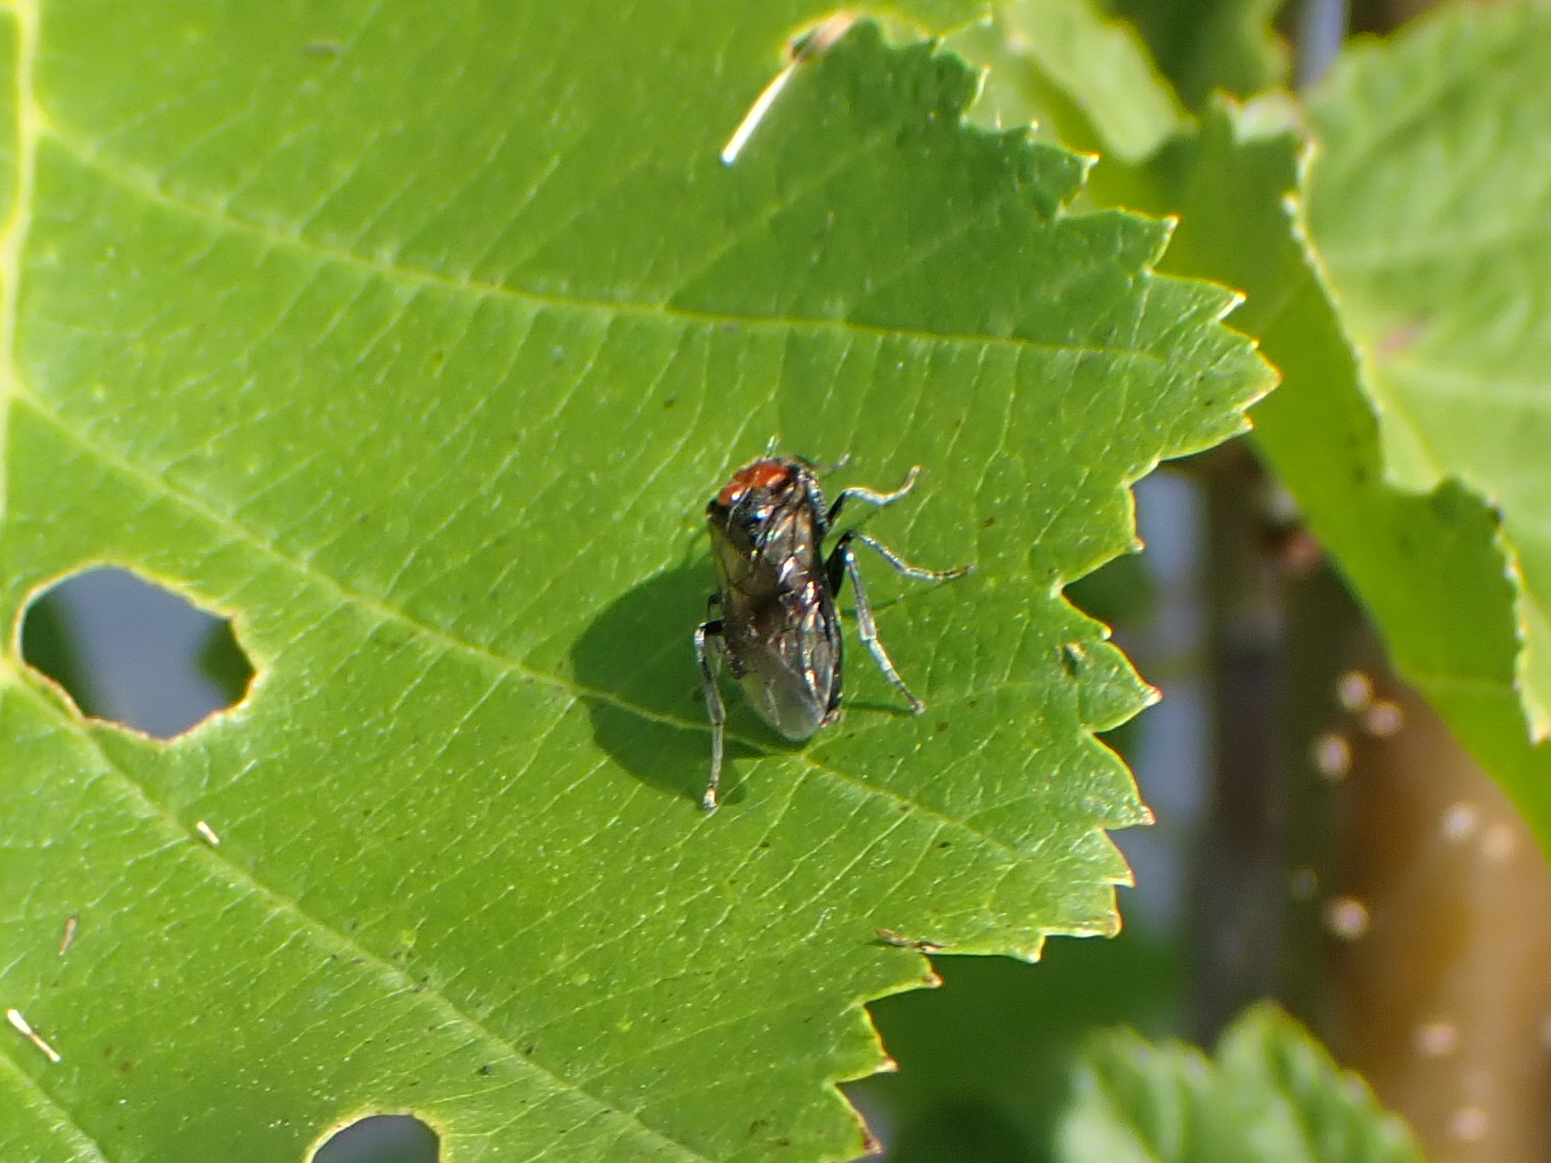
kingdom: Animalia
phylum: Arthropoda
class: Insecta
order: Hymenoptera
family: Tenthredinidae
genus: Eriocampa
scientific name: Eriocampa ovata
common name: Alder wooly sawfly
